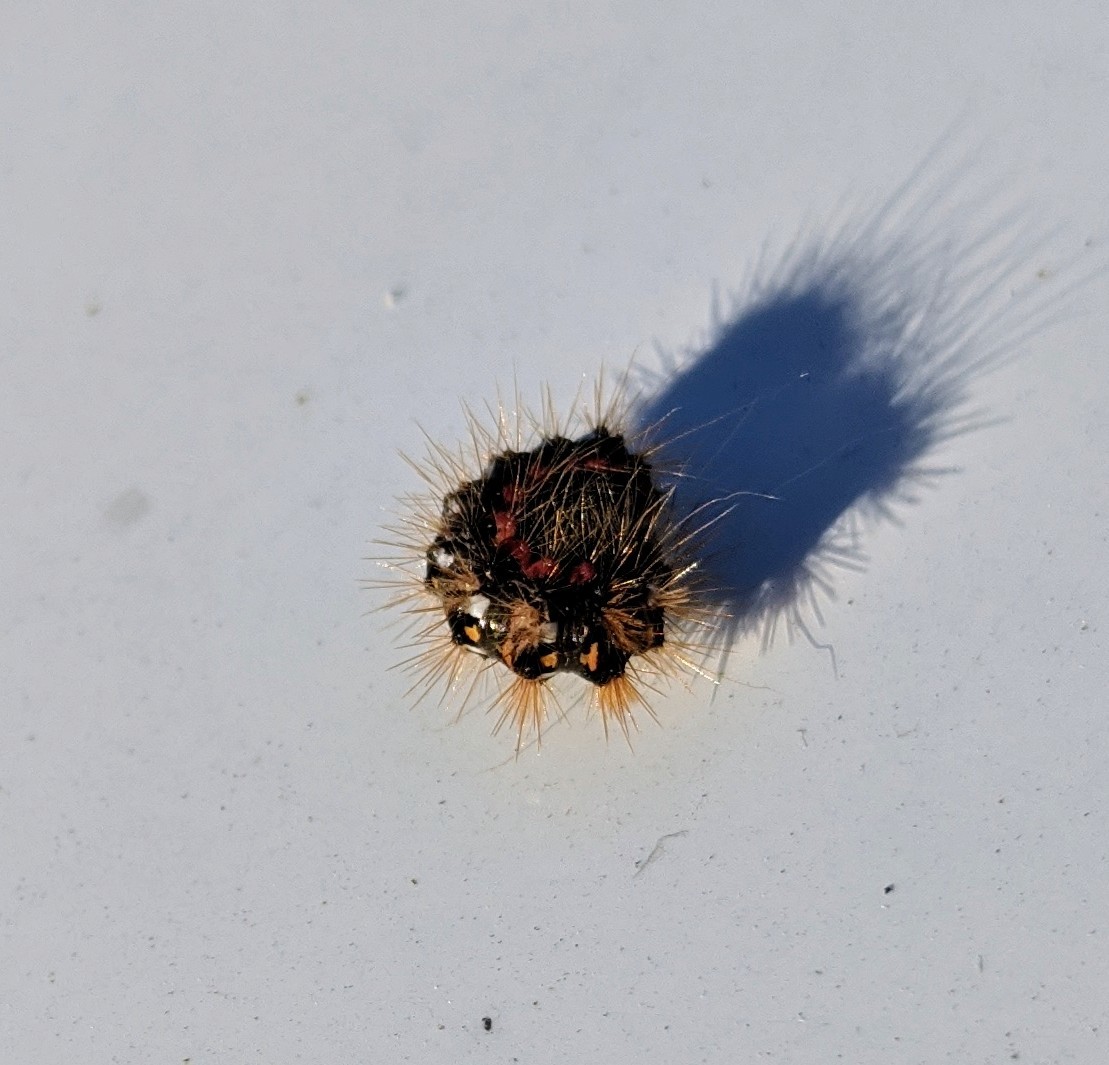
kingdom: Animalia
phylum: Arthropoda
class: Insecta
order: Lepidoptera
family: Noctuidae
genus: Acronicta
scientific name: Acronicta rumicis
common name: Knot grass
